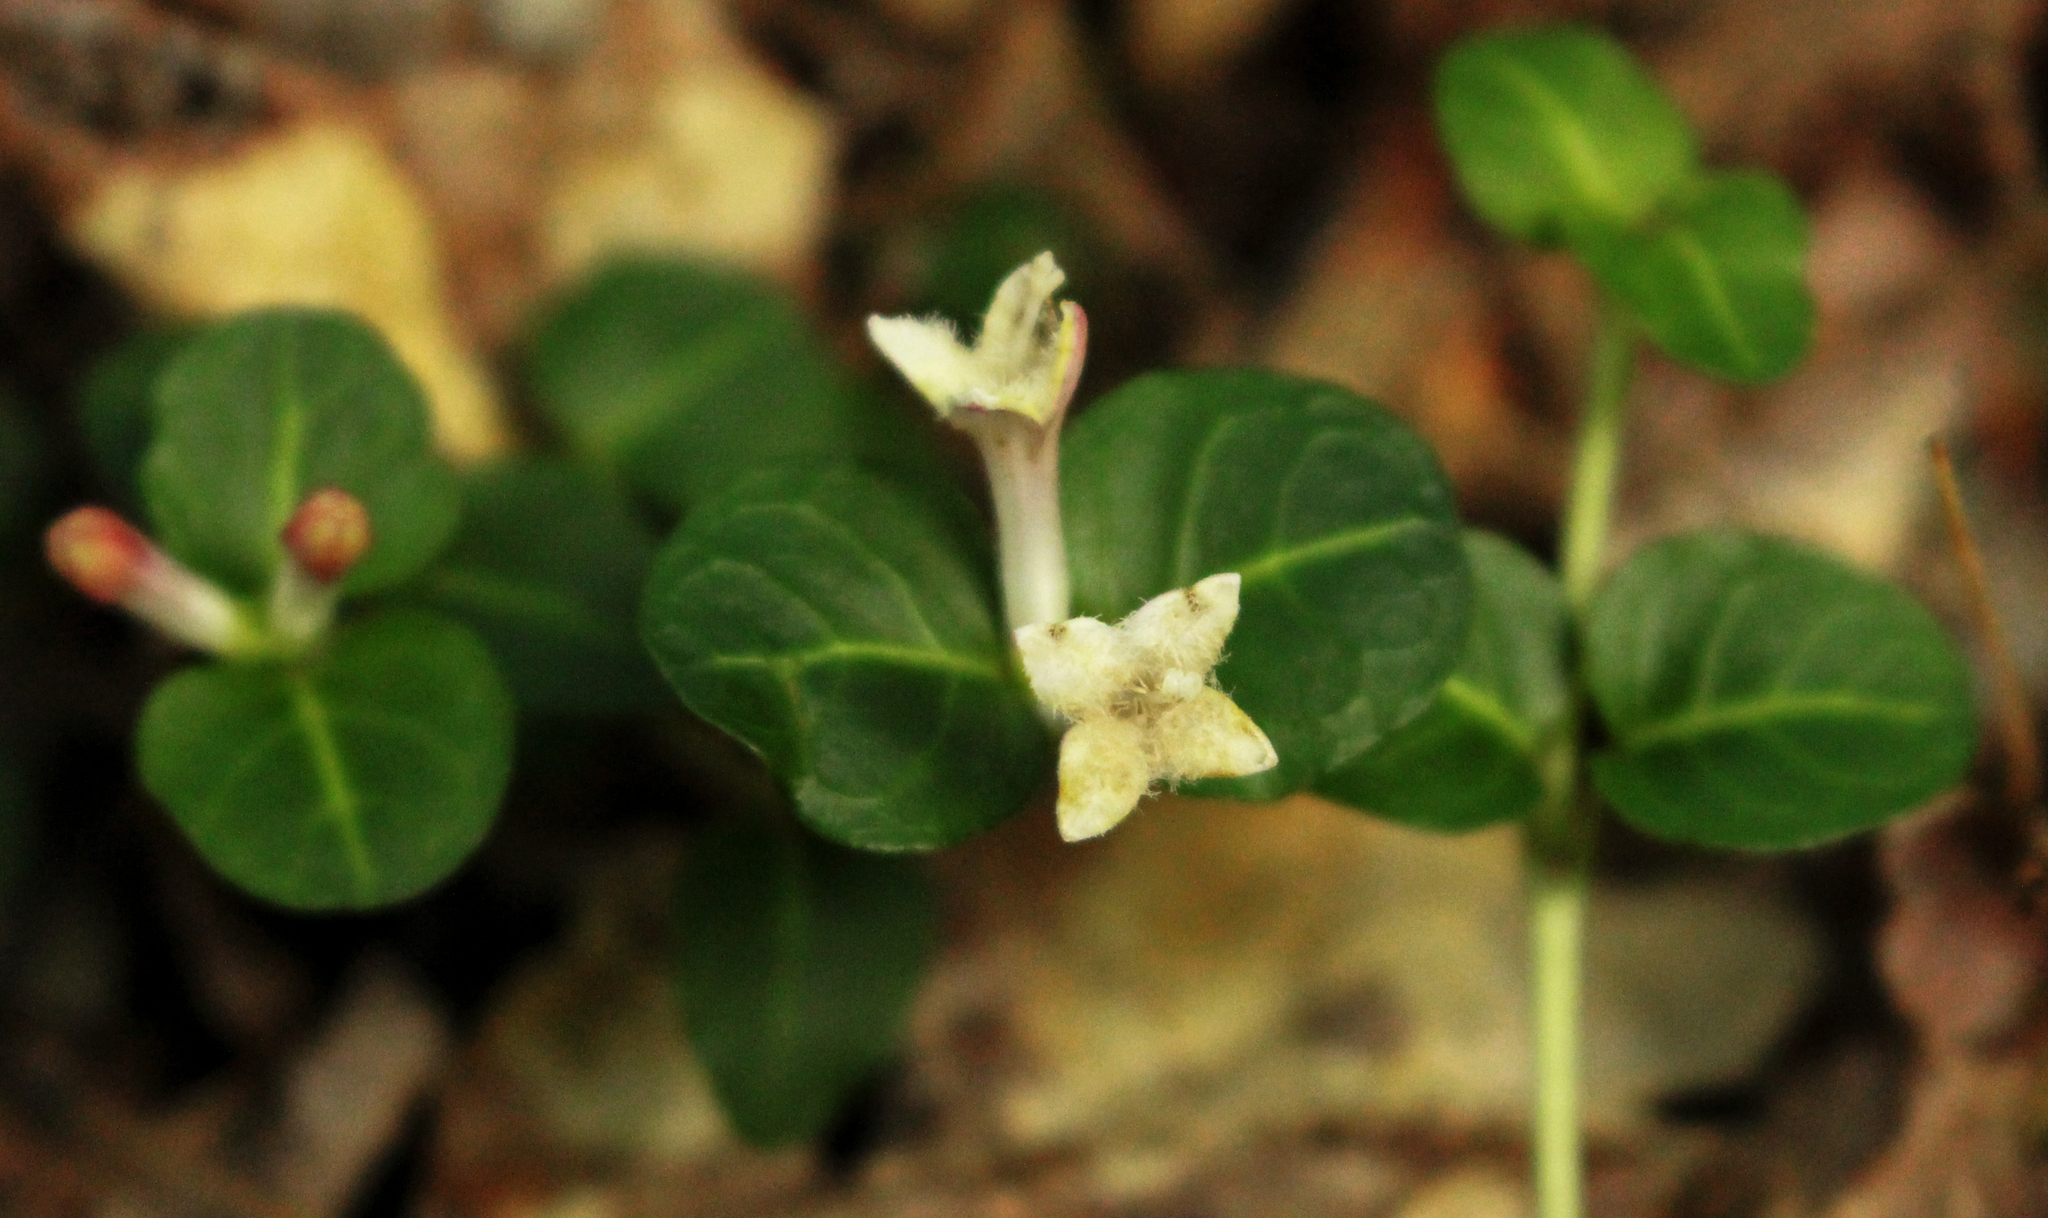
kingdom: Plantae
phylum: Tracheophyta
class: Magnoliopsida
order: Gentianales
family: Rubiaceae
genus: Mitchella
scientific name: Mitchella repens
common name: Partridge-berry
